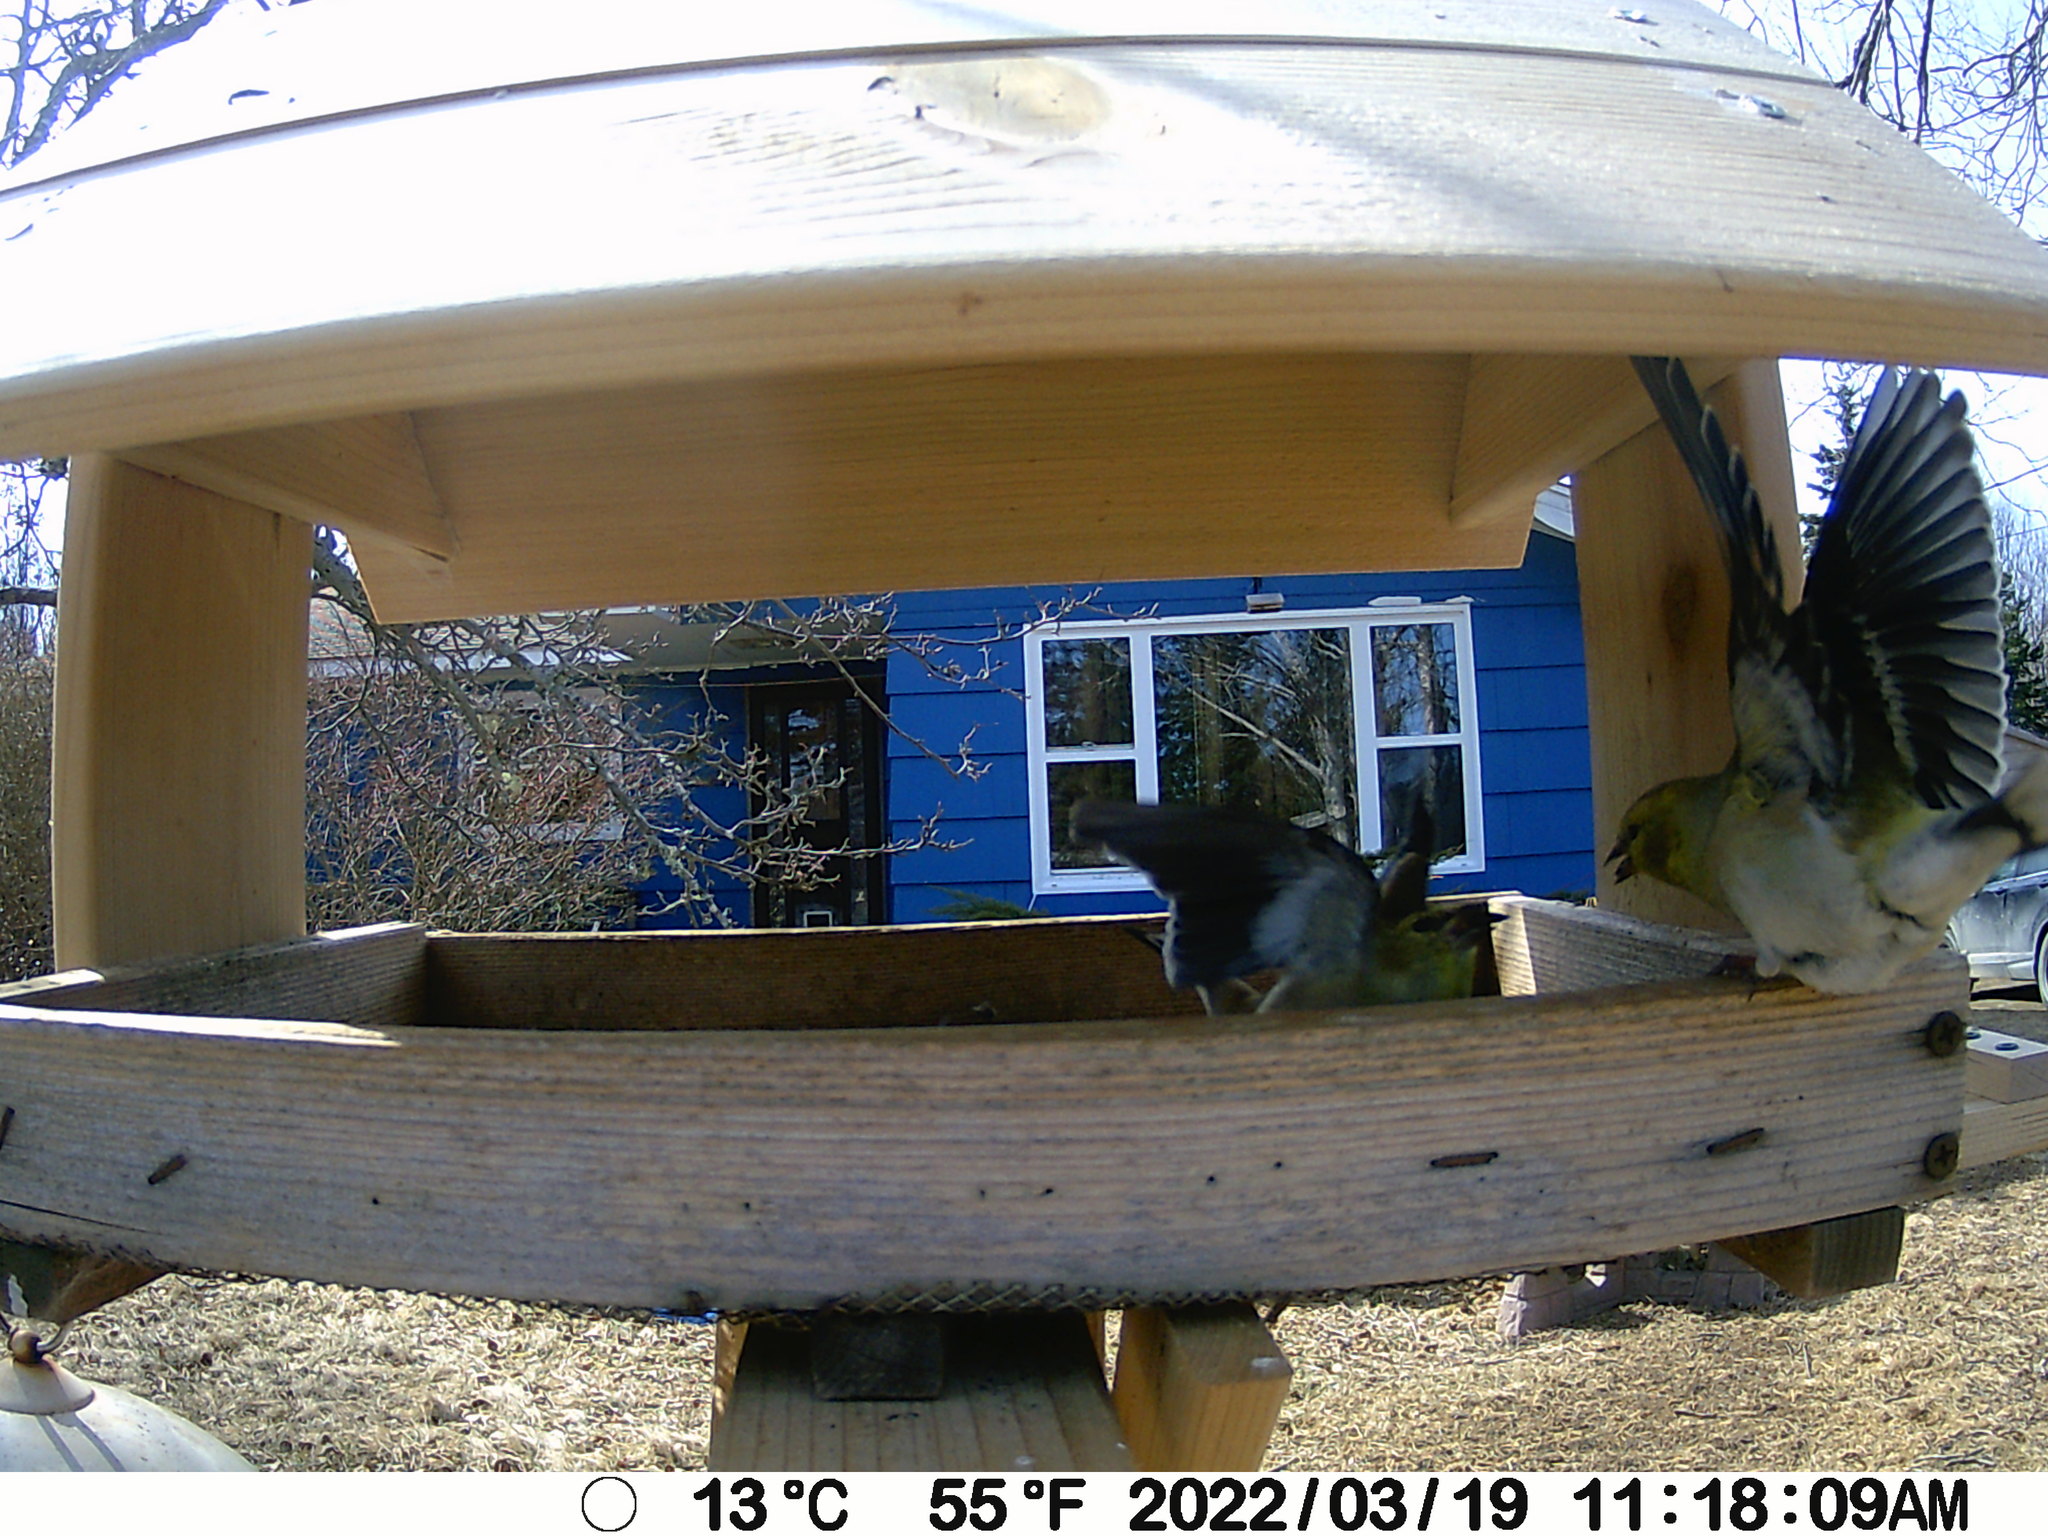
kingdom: Animalia
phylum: Chordata
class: Aves
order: Passeriformes
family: Fringillidae
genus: Spinus
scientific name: Spinus tristis
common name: American goldfinch
